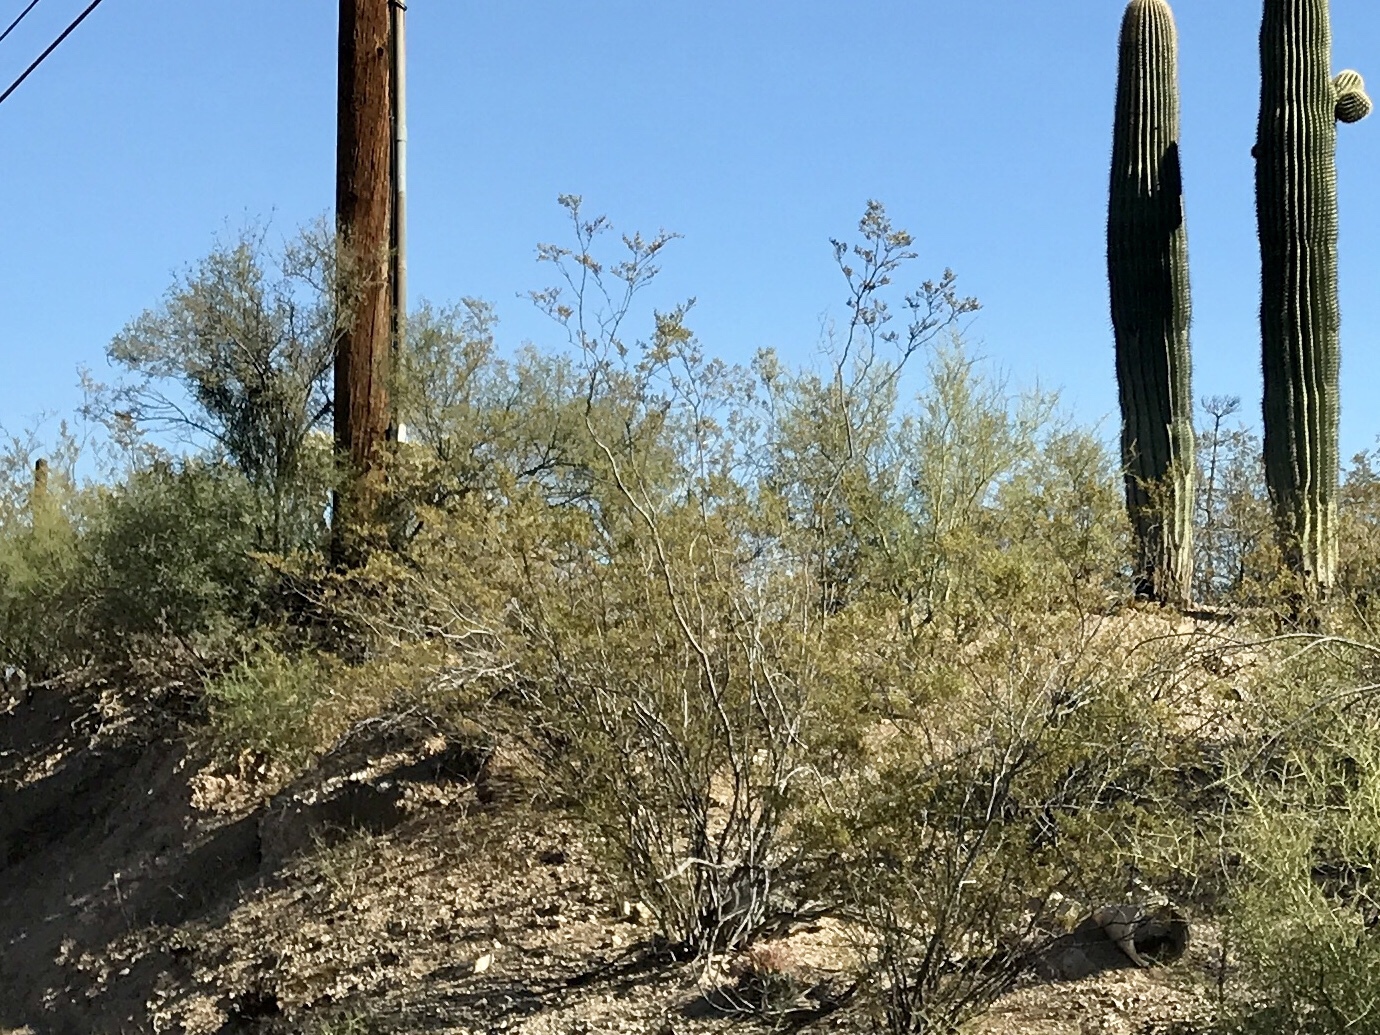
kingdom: Plantae
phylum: Tracheophyta
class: Magnoliopsida
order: Zygophyllales
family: Zygophyllaceae
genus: Larrea
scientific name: Larrea tridentata
